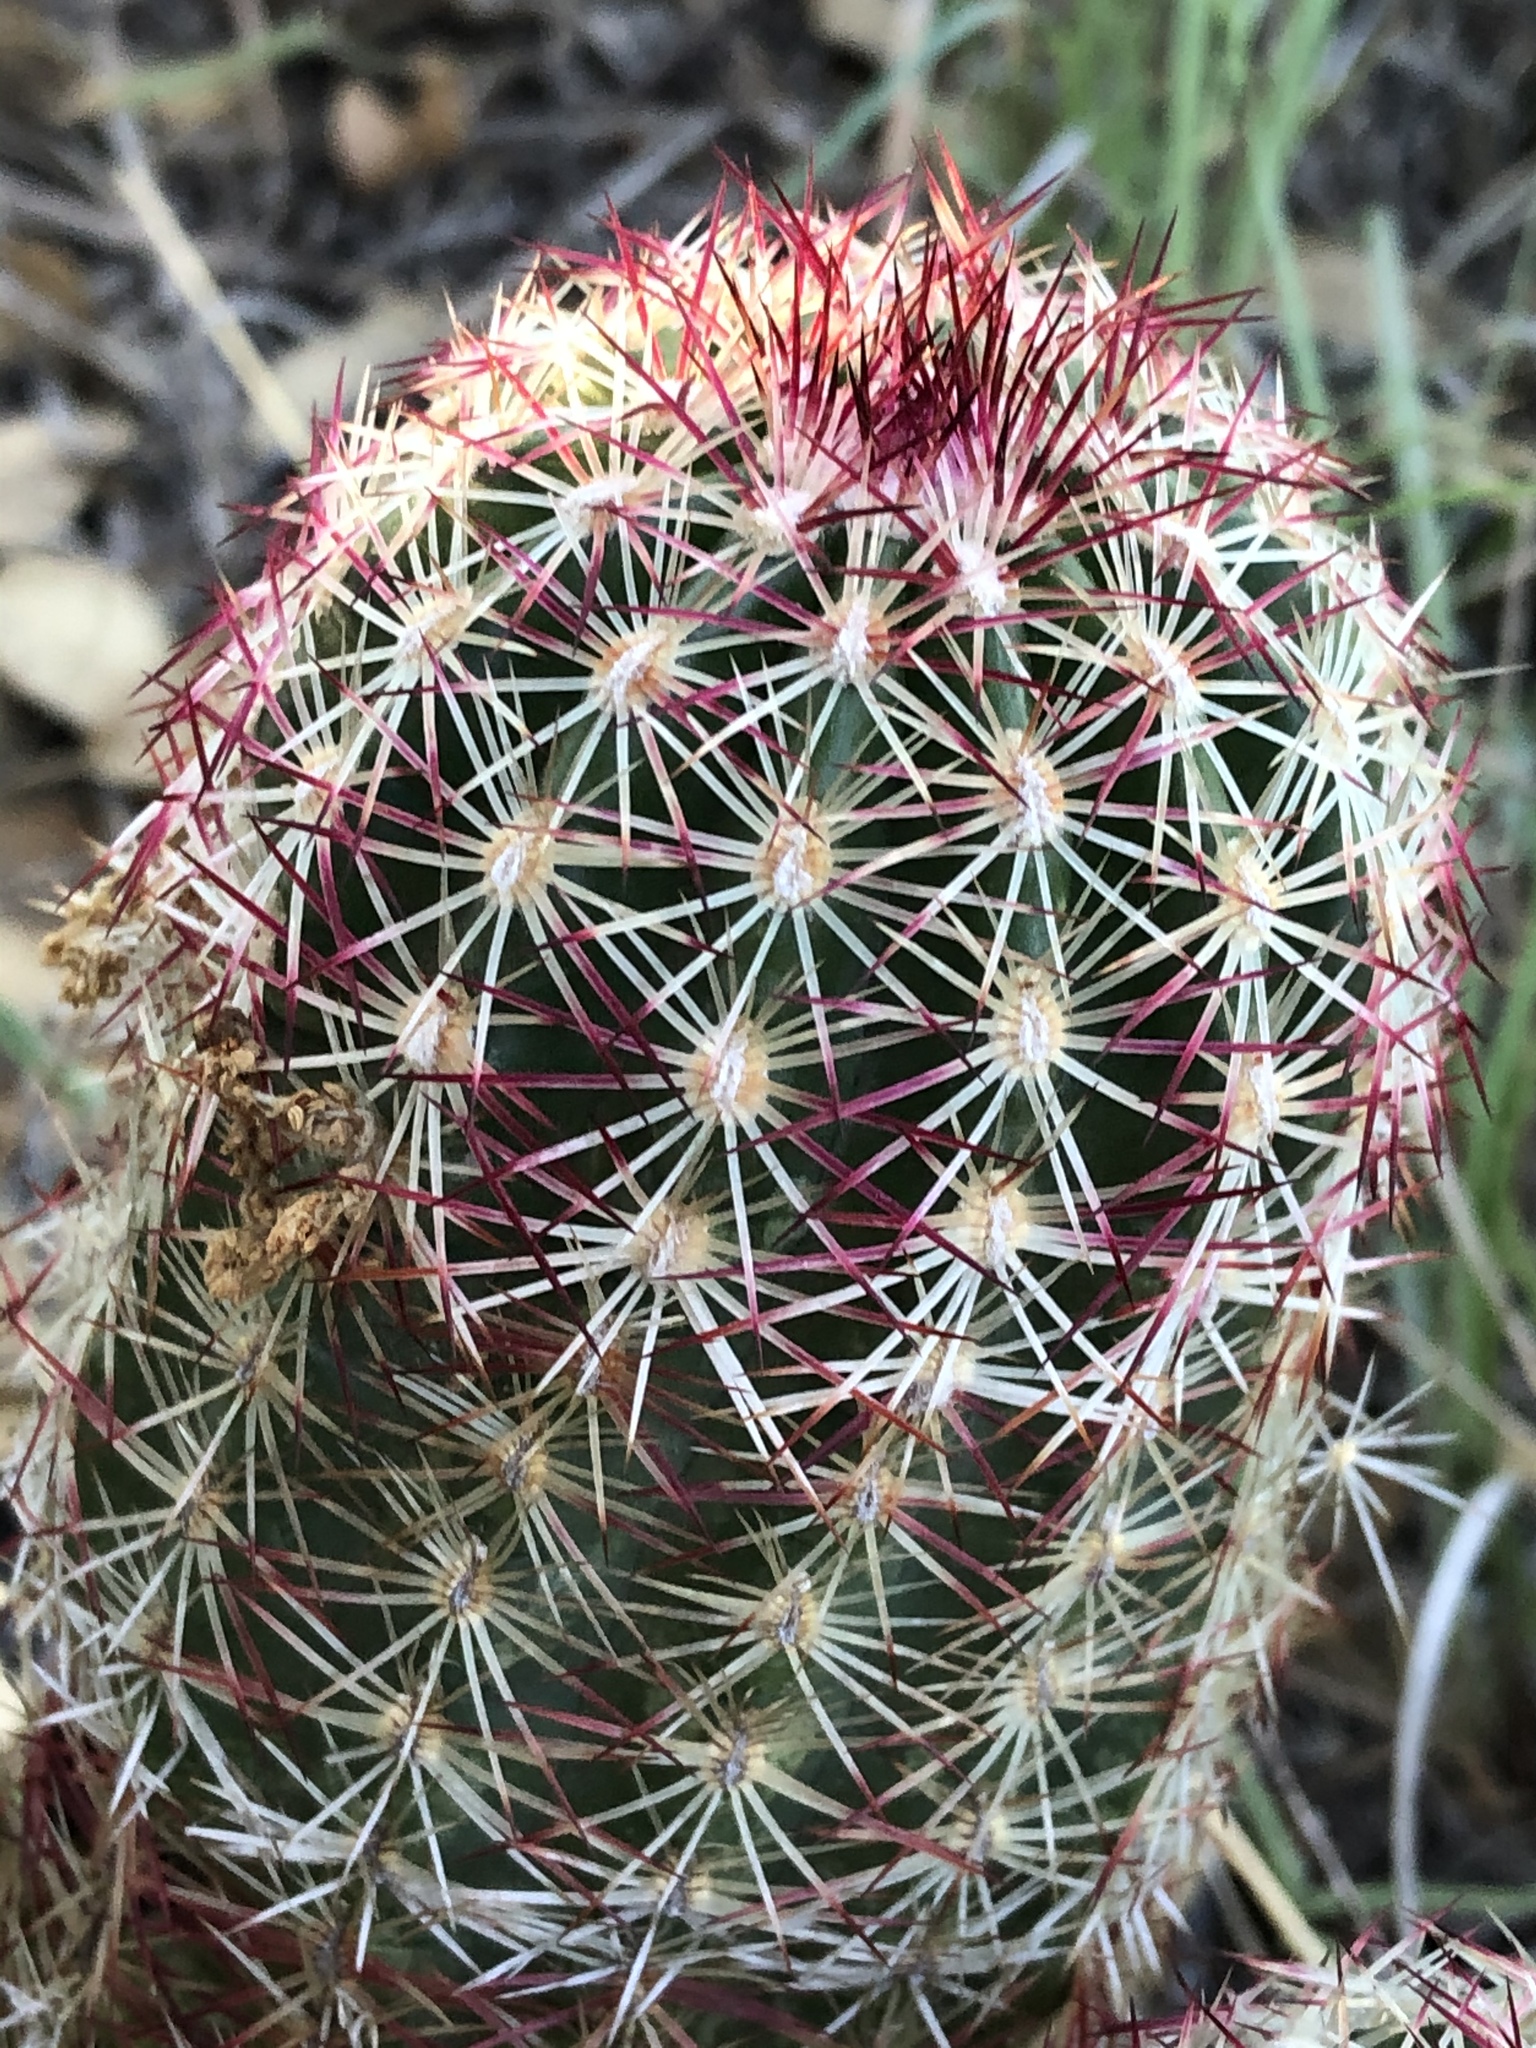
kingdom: Plantae
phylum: Tracheophyta
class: Magnoliopsida
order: Caryophyllales
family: Cactaceae
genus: Echinocereus
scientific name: Echinocereus viridiflorus
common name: Nylon hedgehog cactus
